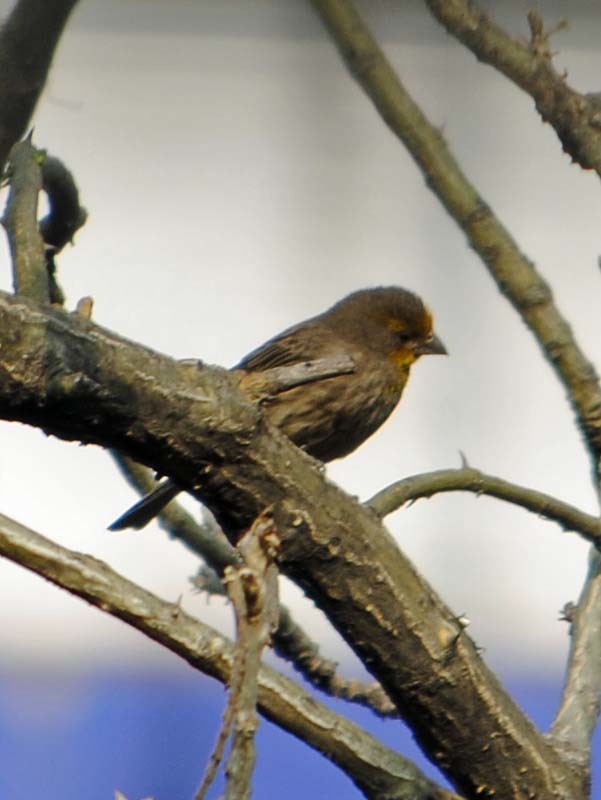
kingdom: Animalia
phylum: Chordata
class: Aves
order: Passeriformes
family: Fringillidae
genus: Haemorhous
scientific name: Haemorhous mexicanus
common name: House finch
